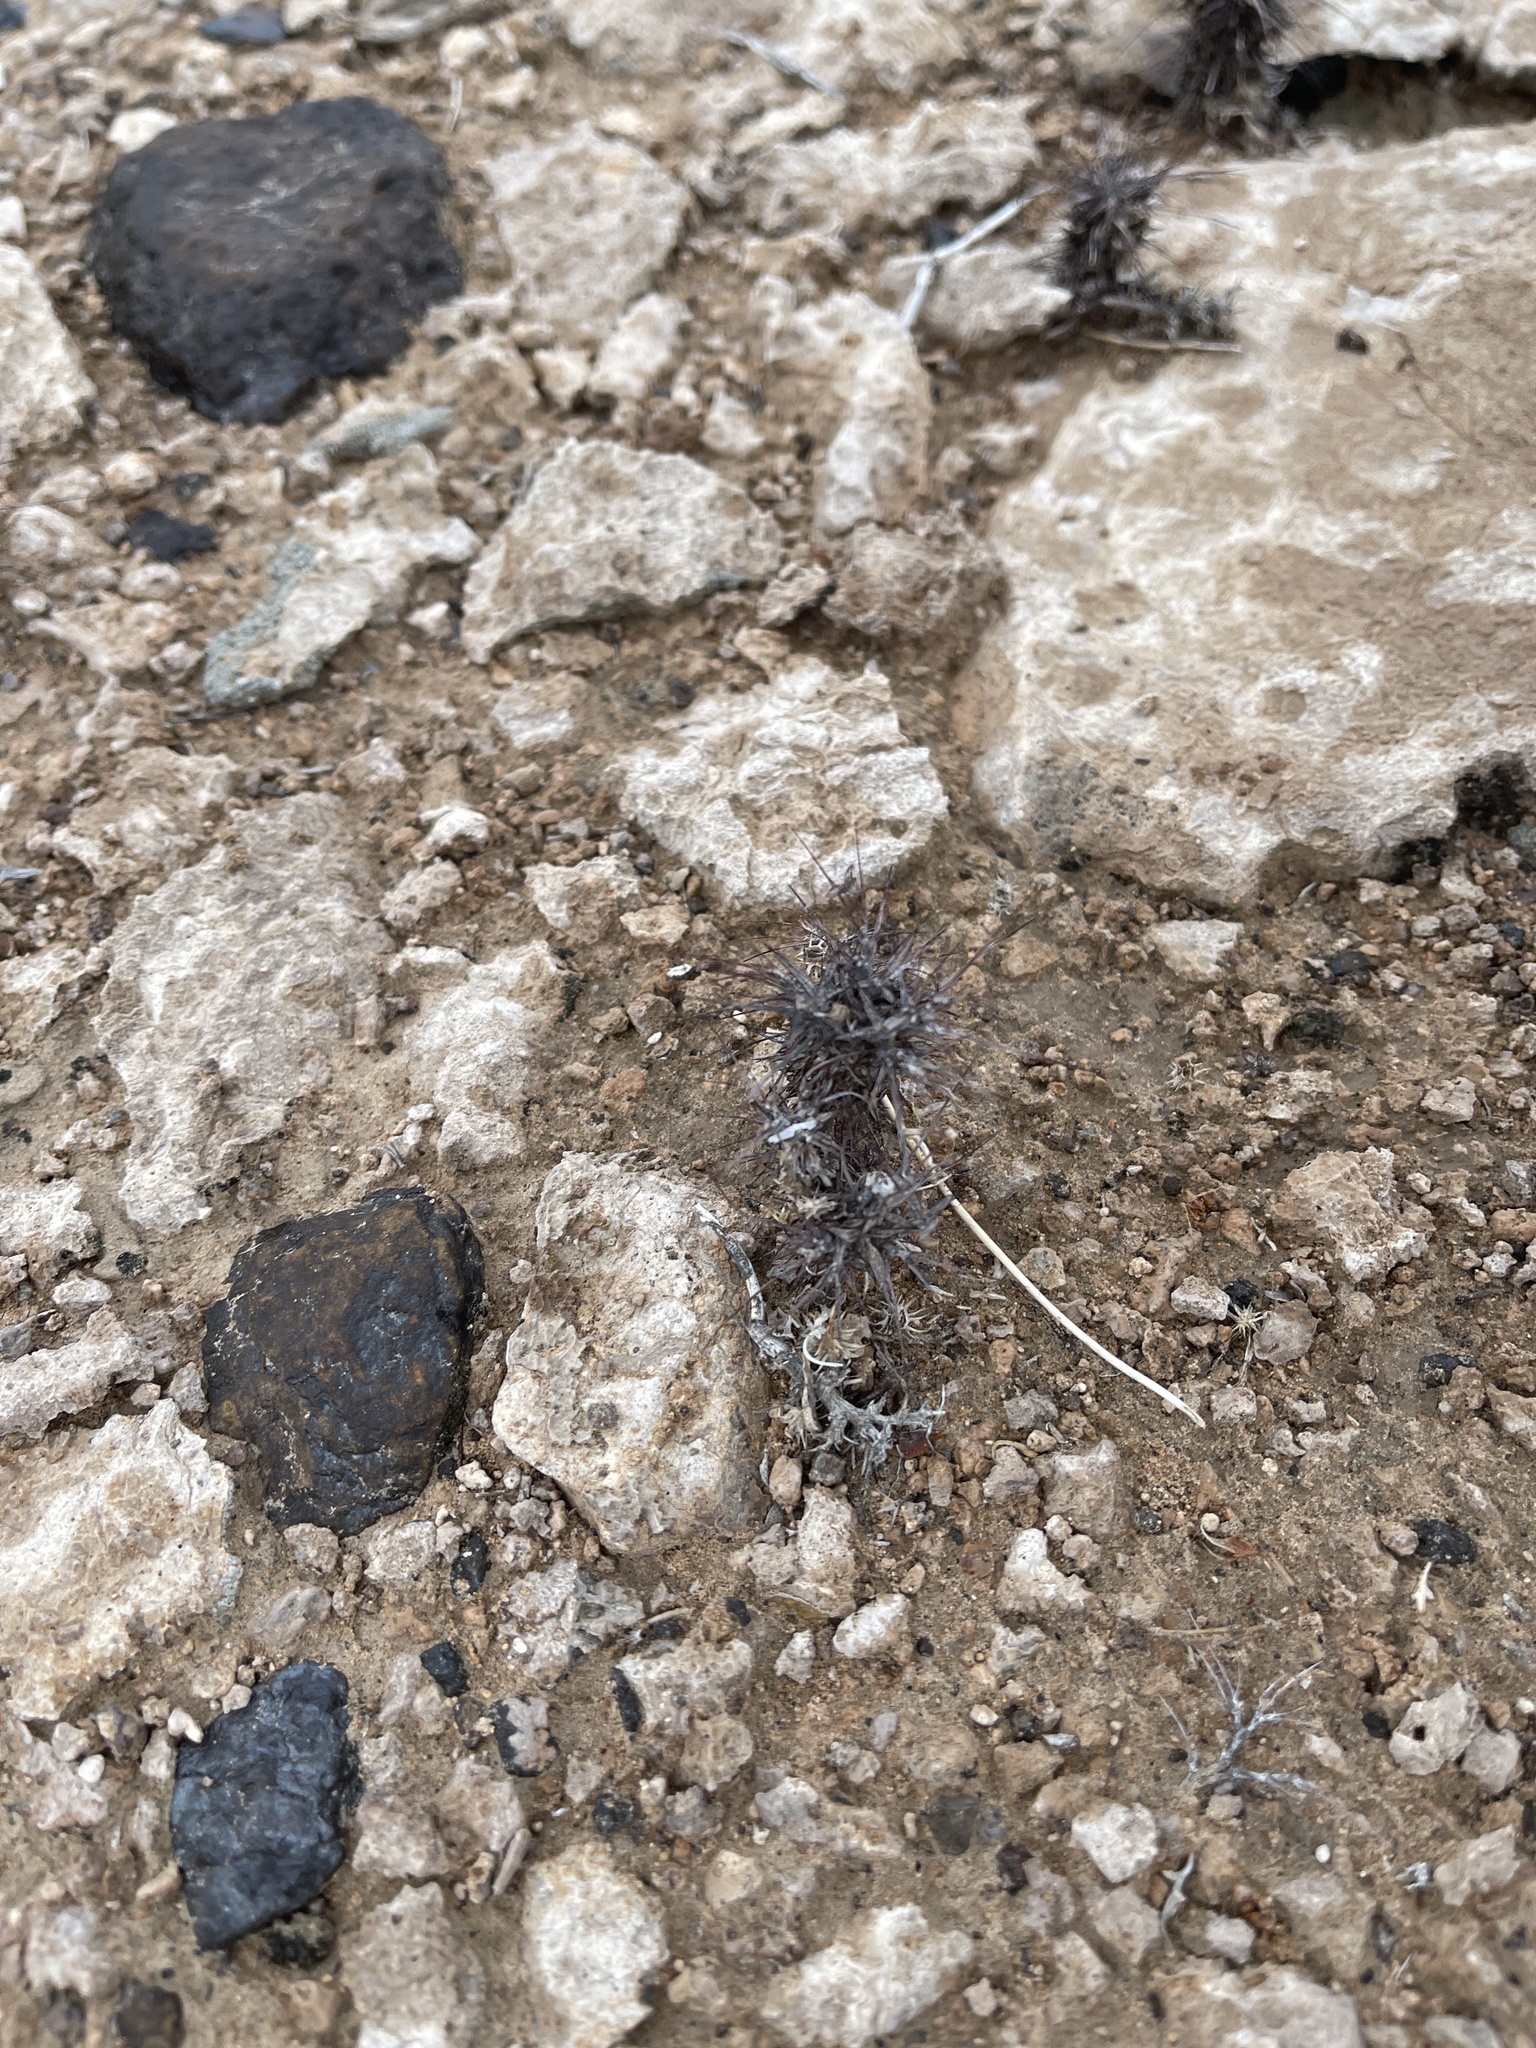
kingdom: Plantae
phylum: Tracheophyta
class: Magnoliopsida
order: Caryophyllales
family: Polygonaceae
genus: Chorizanthe
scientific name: Chorizanthe rigida
